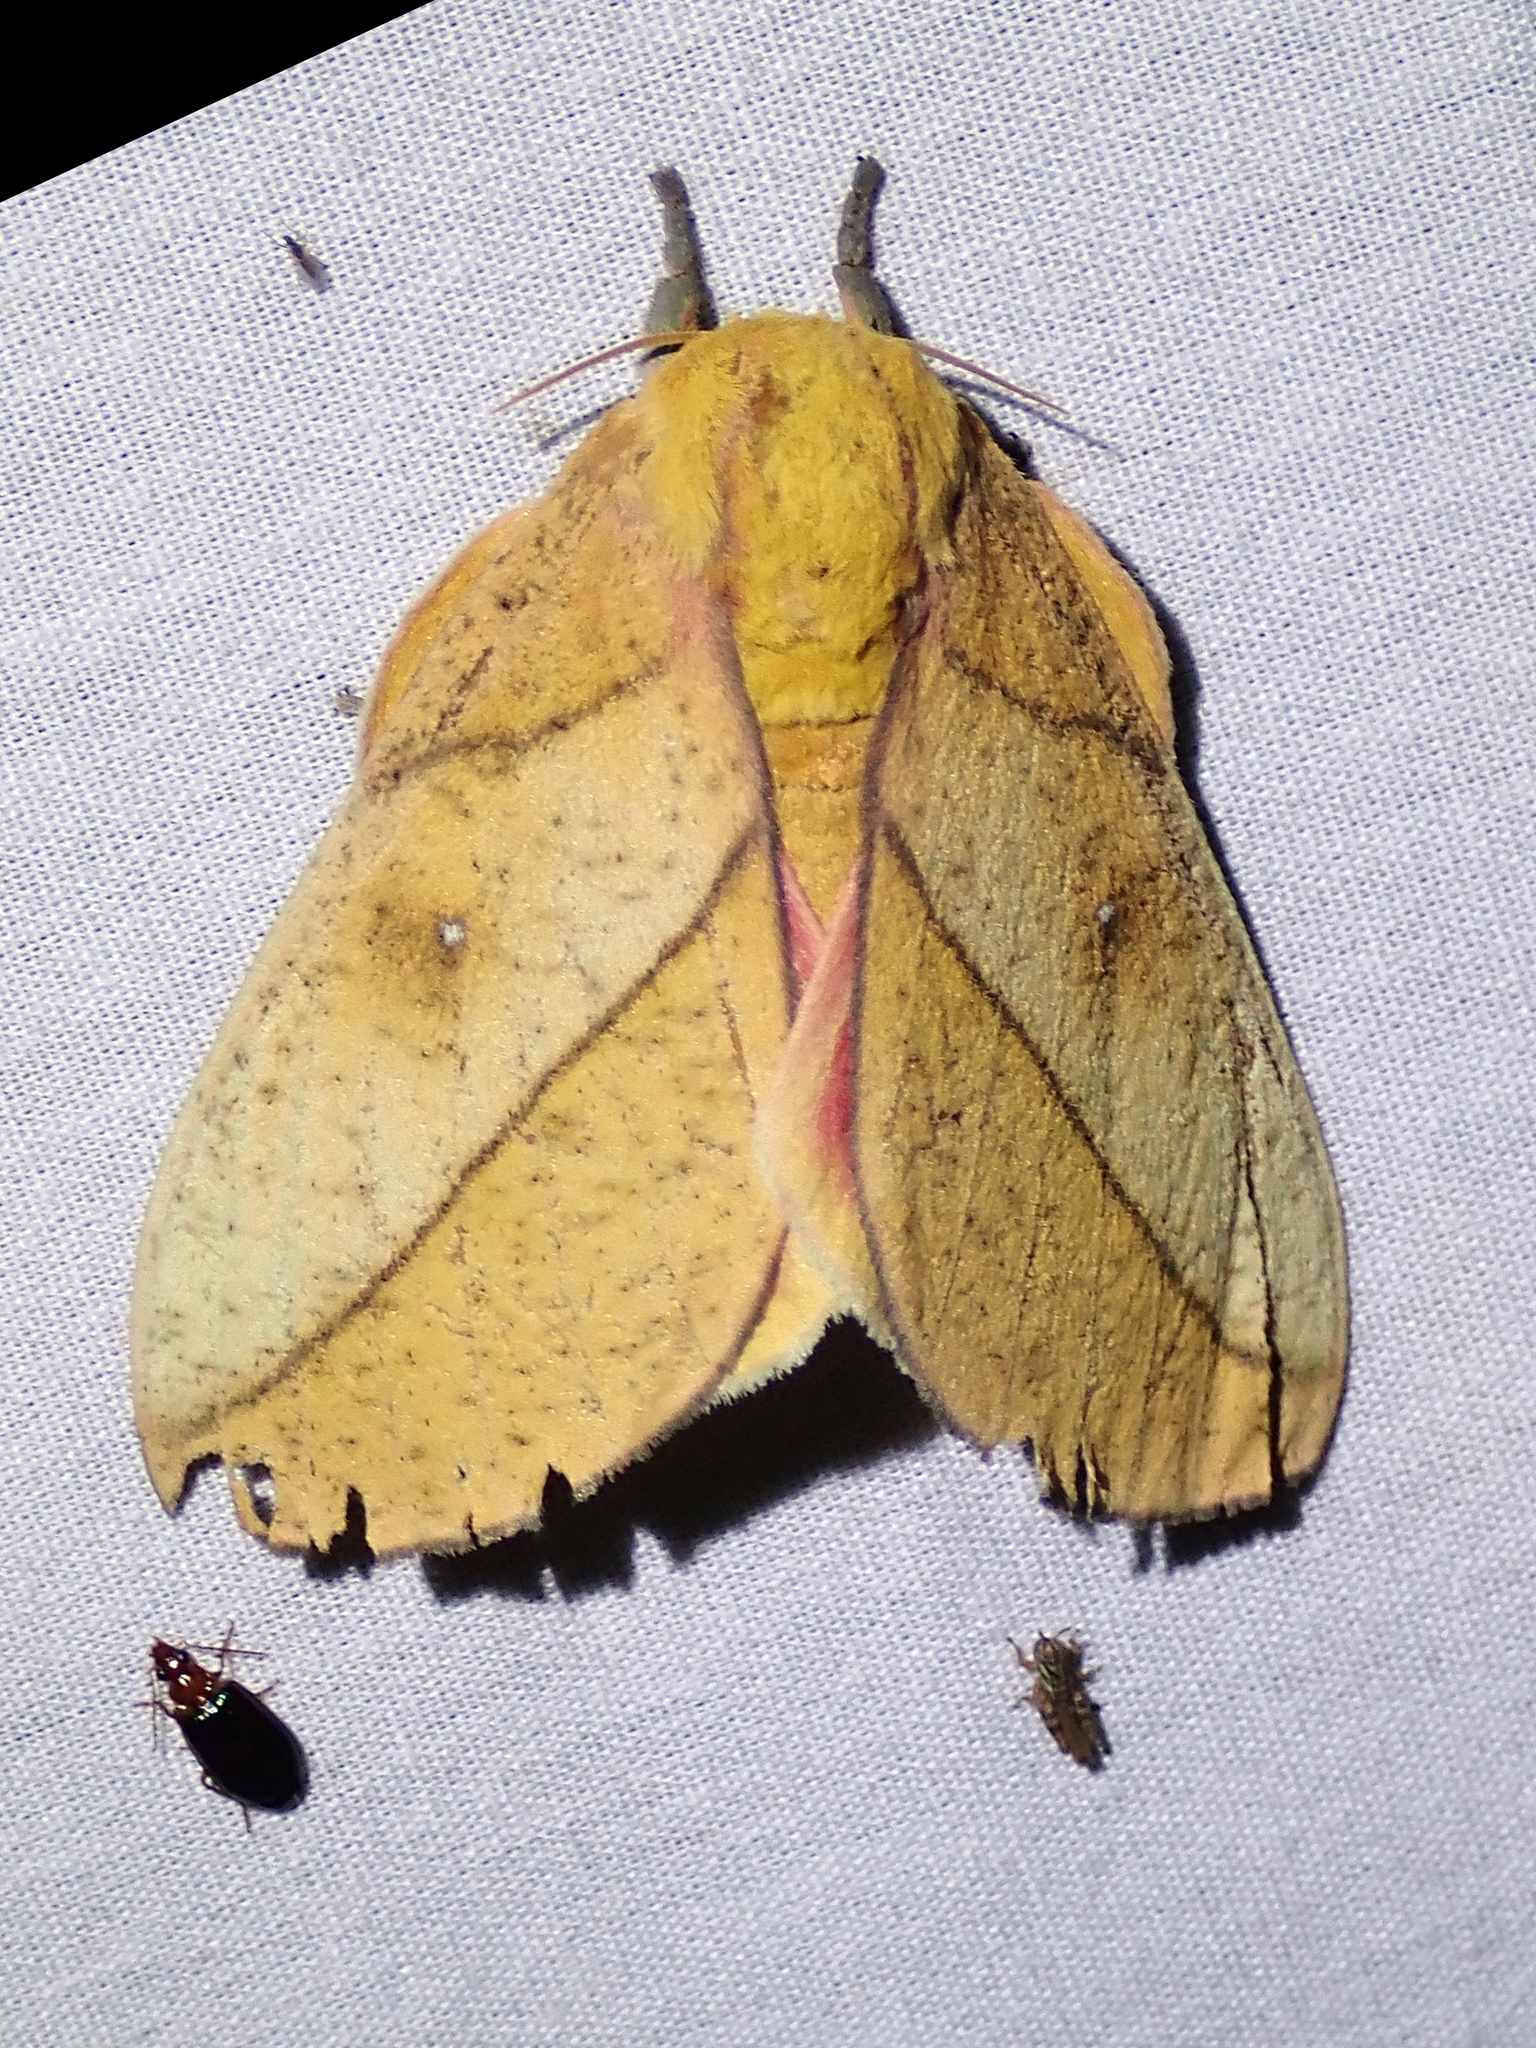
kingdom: Animalia
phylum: Arthropoda
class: Insecta
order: Lepidoptera
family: Saturniidae
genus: Syssphinx
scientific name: Syssphinx montana
